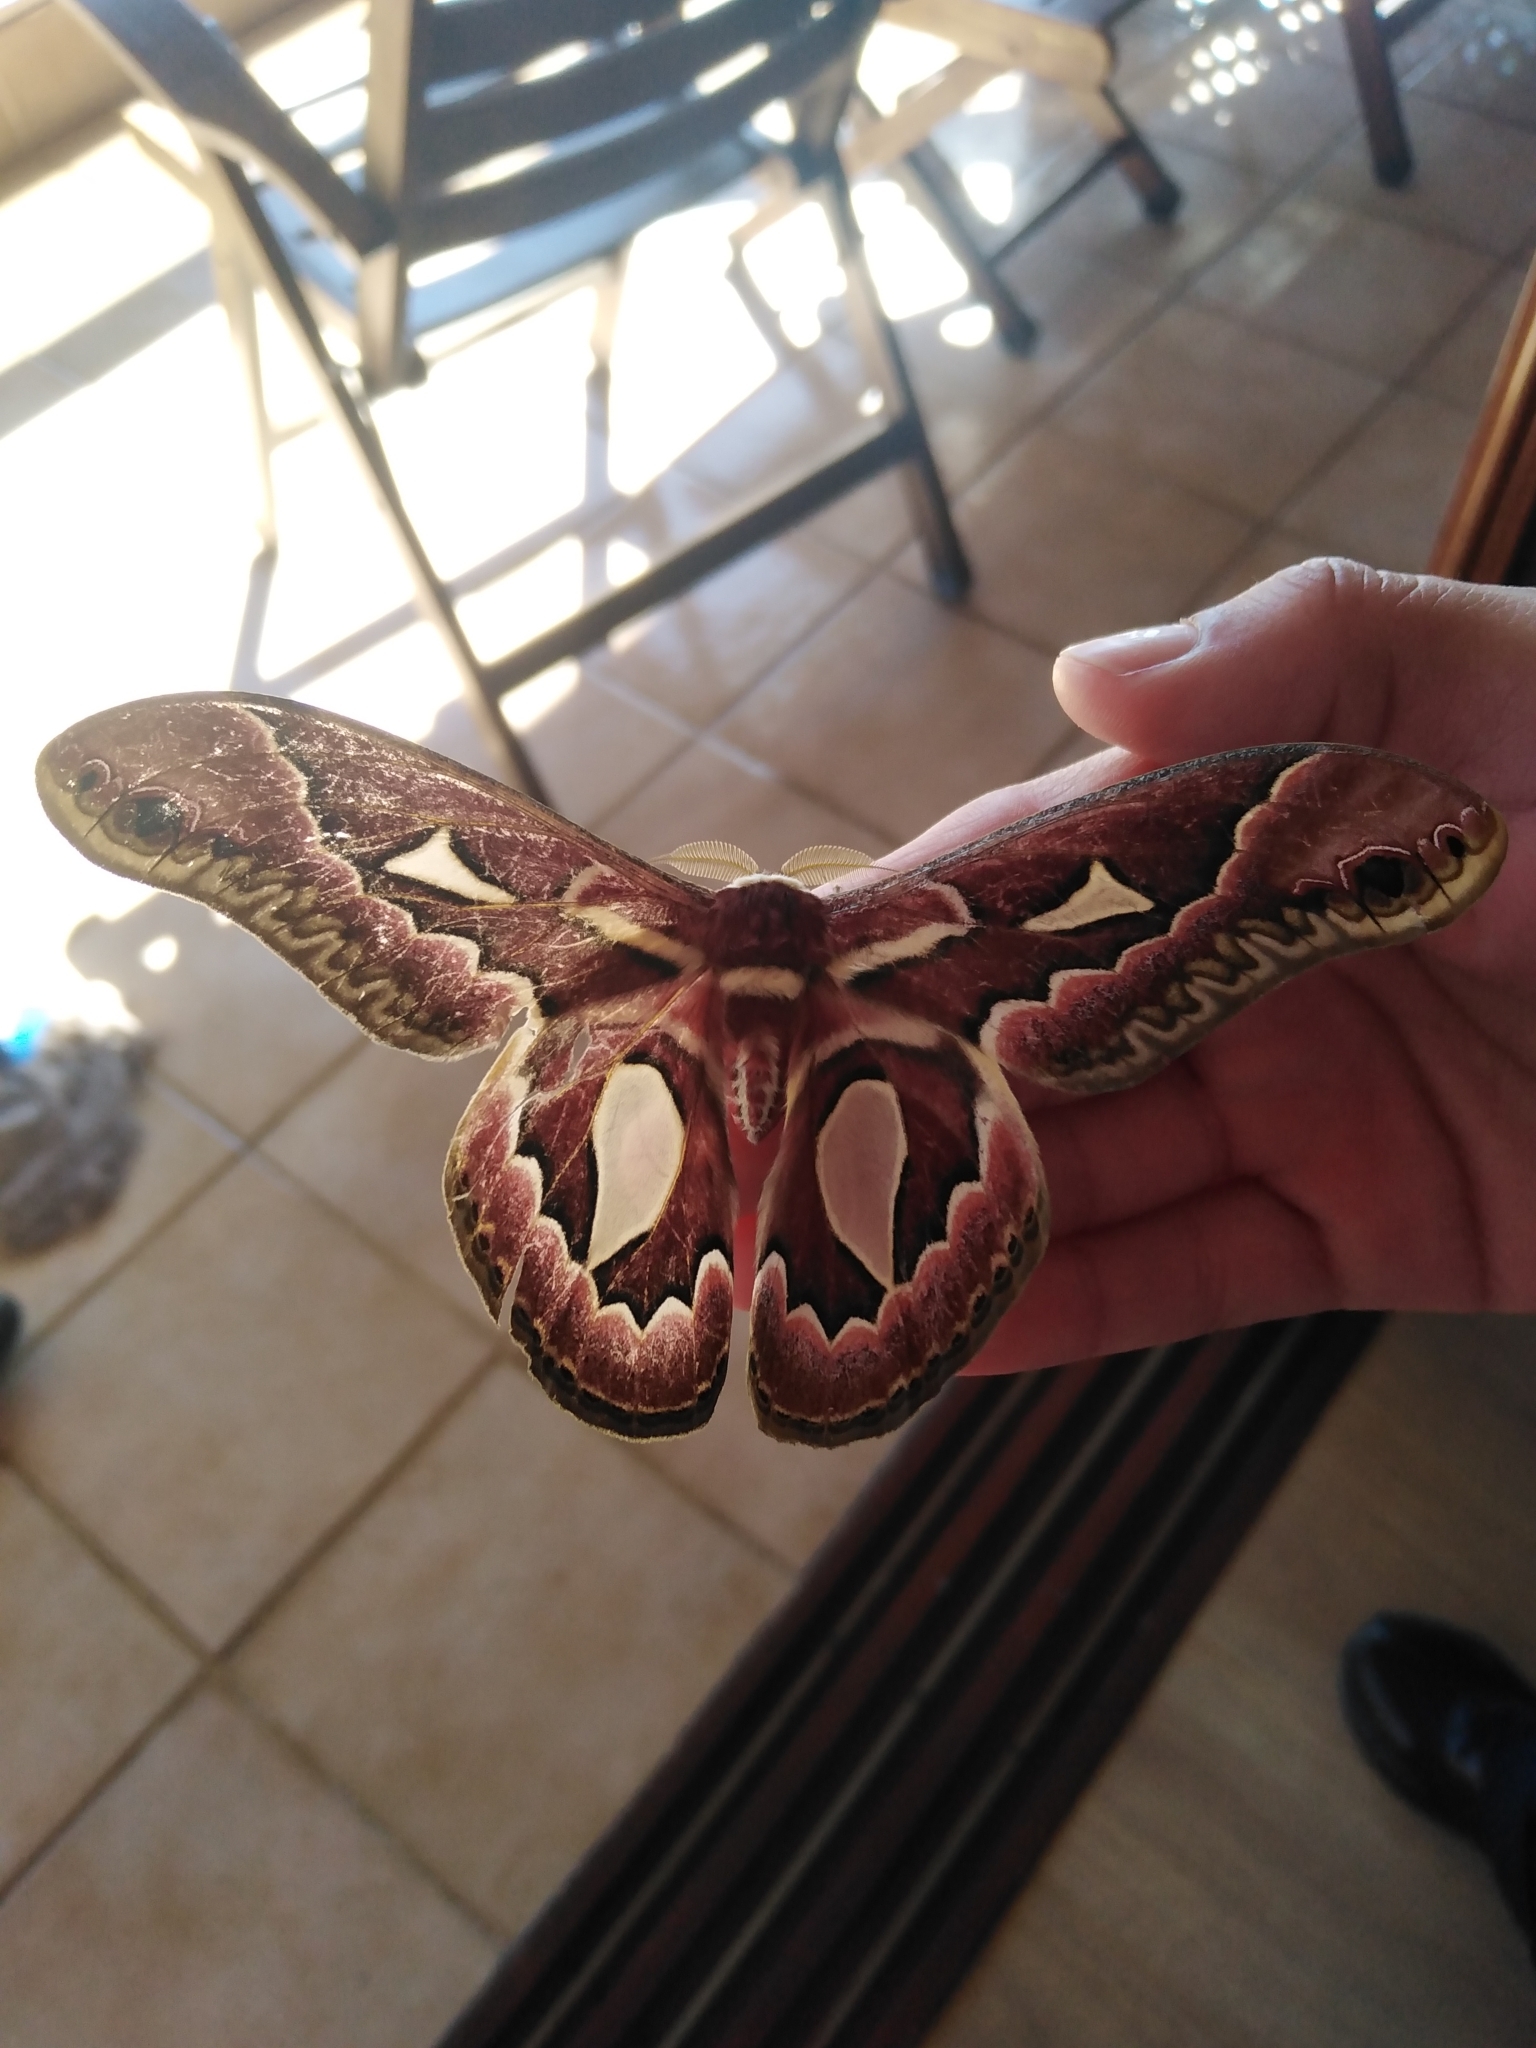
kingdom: Animalia
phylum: Arthropoda
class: Insecta
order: Lepidoptera
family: Saturniidae
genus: Rothschildia
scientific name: Rothschildia jacobaeae
